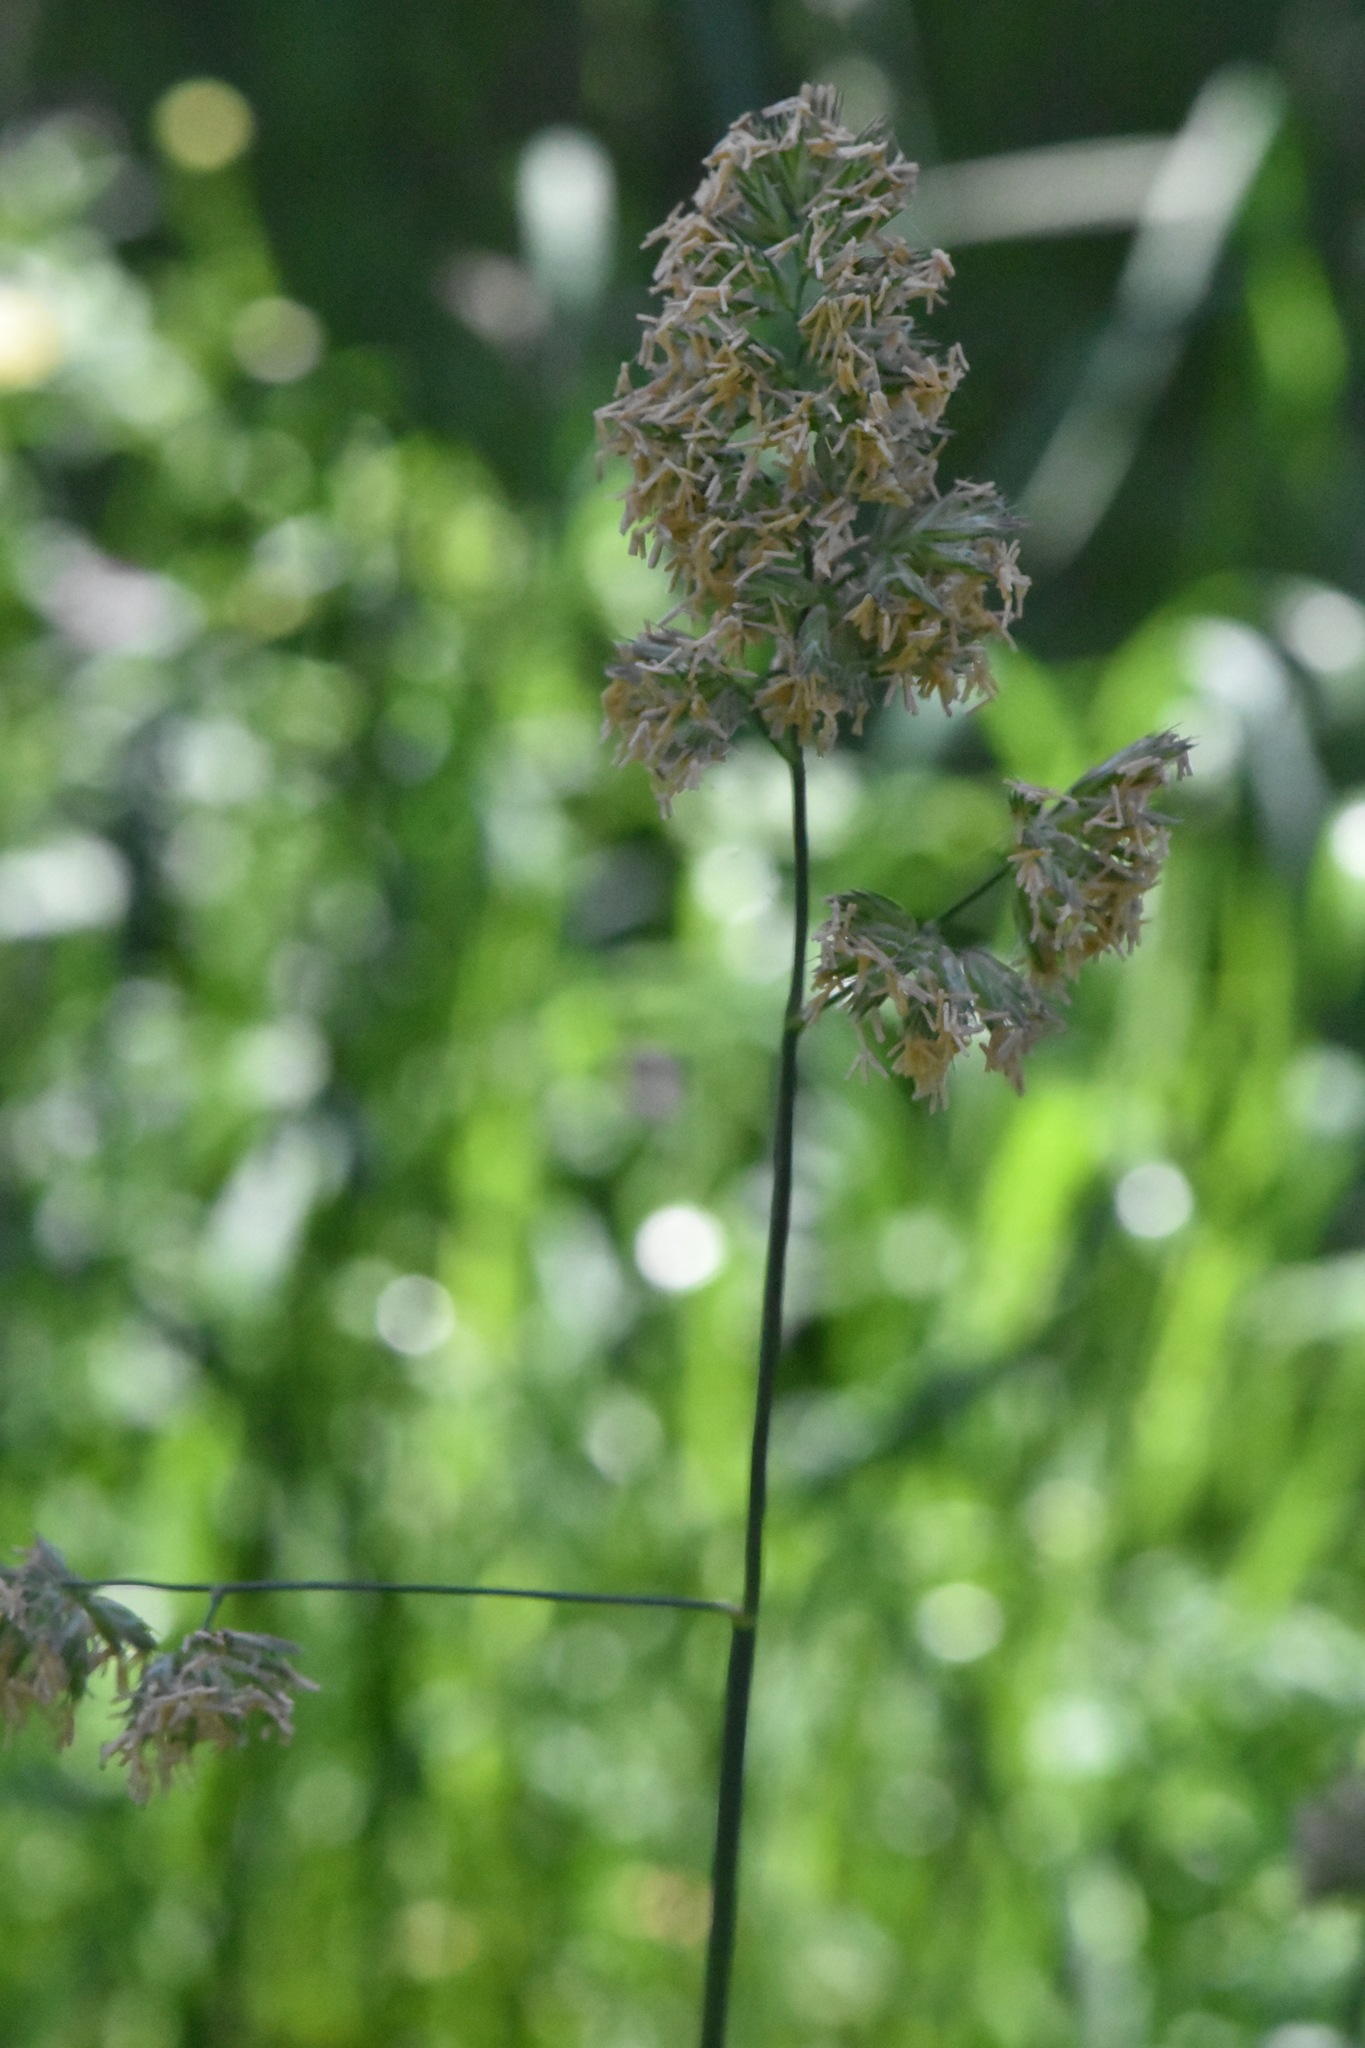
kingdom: Plantae
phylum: Tracheophyta
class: Liliopsida
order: Poales
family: Poaceae
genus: Dactylis
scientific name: Dactylis glomerata
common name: Orchardgrass
